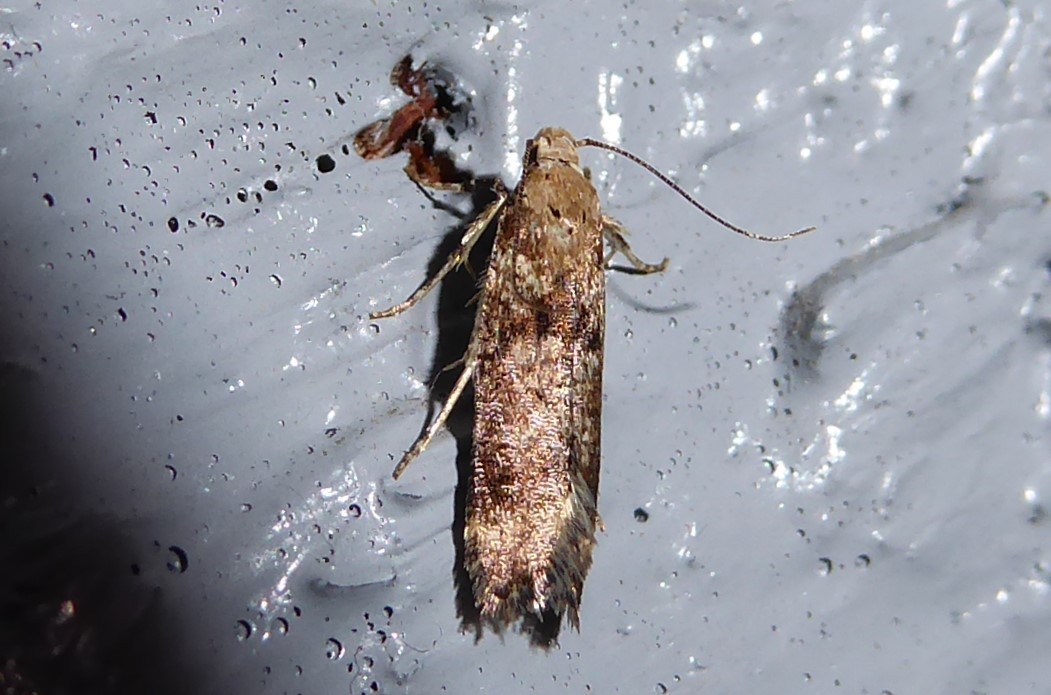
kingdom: Animalia
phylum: Arthropoda
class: Insecta
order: Lepidoptera
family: Gelechiidae
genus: Anisoplaca
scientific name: Anisoplaca acrodactyla
